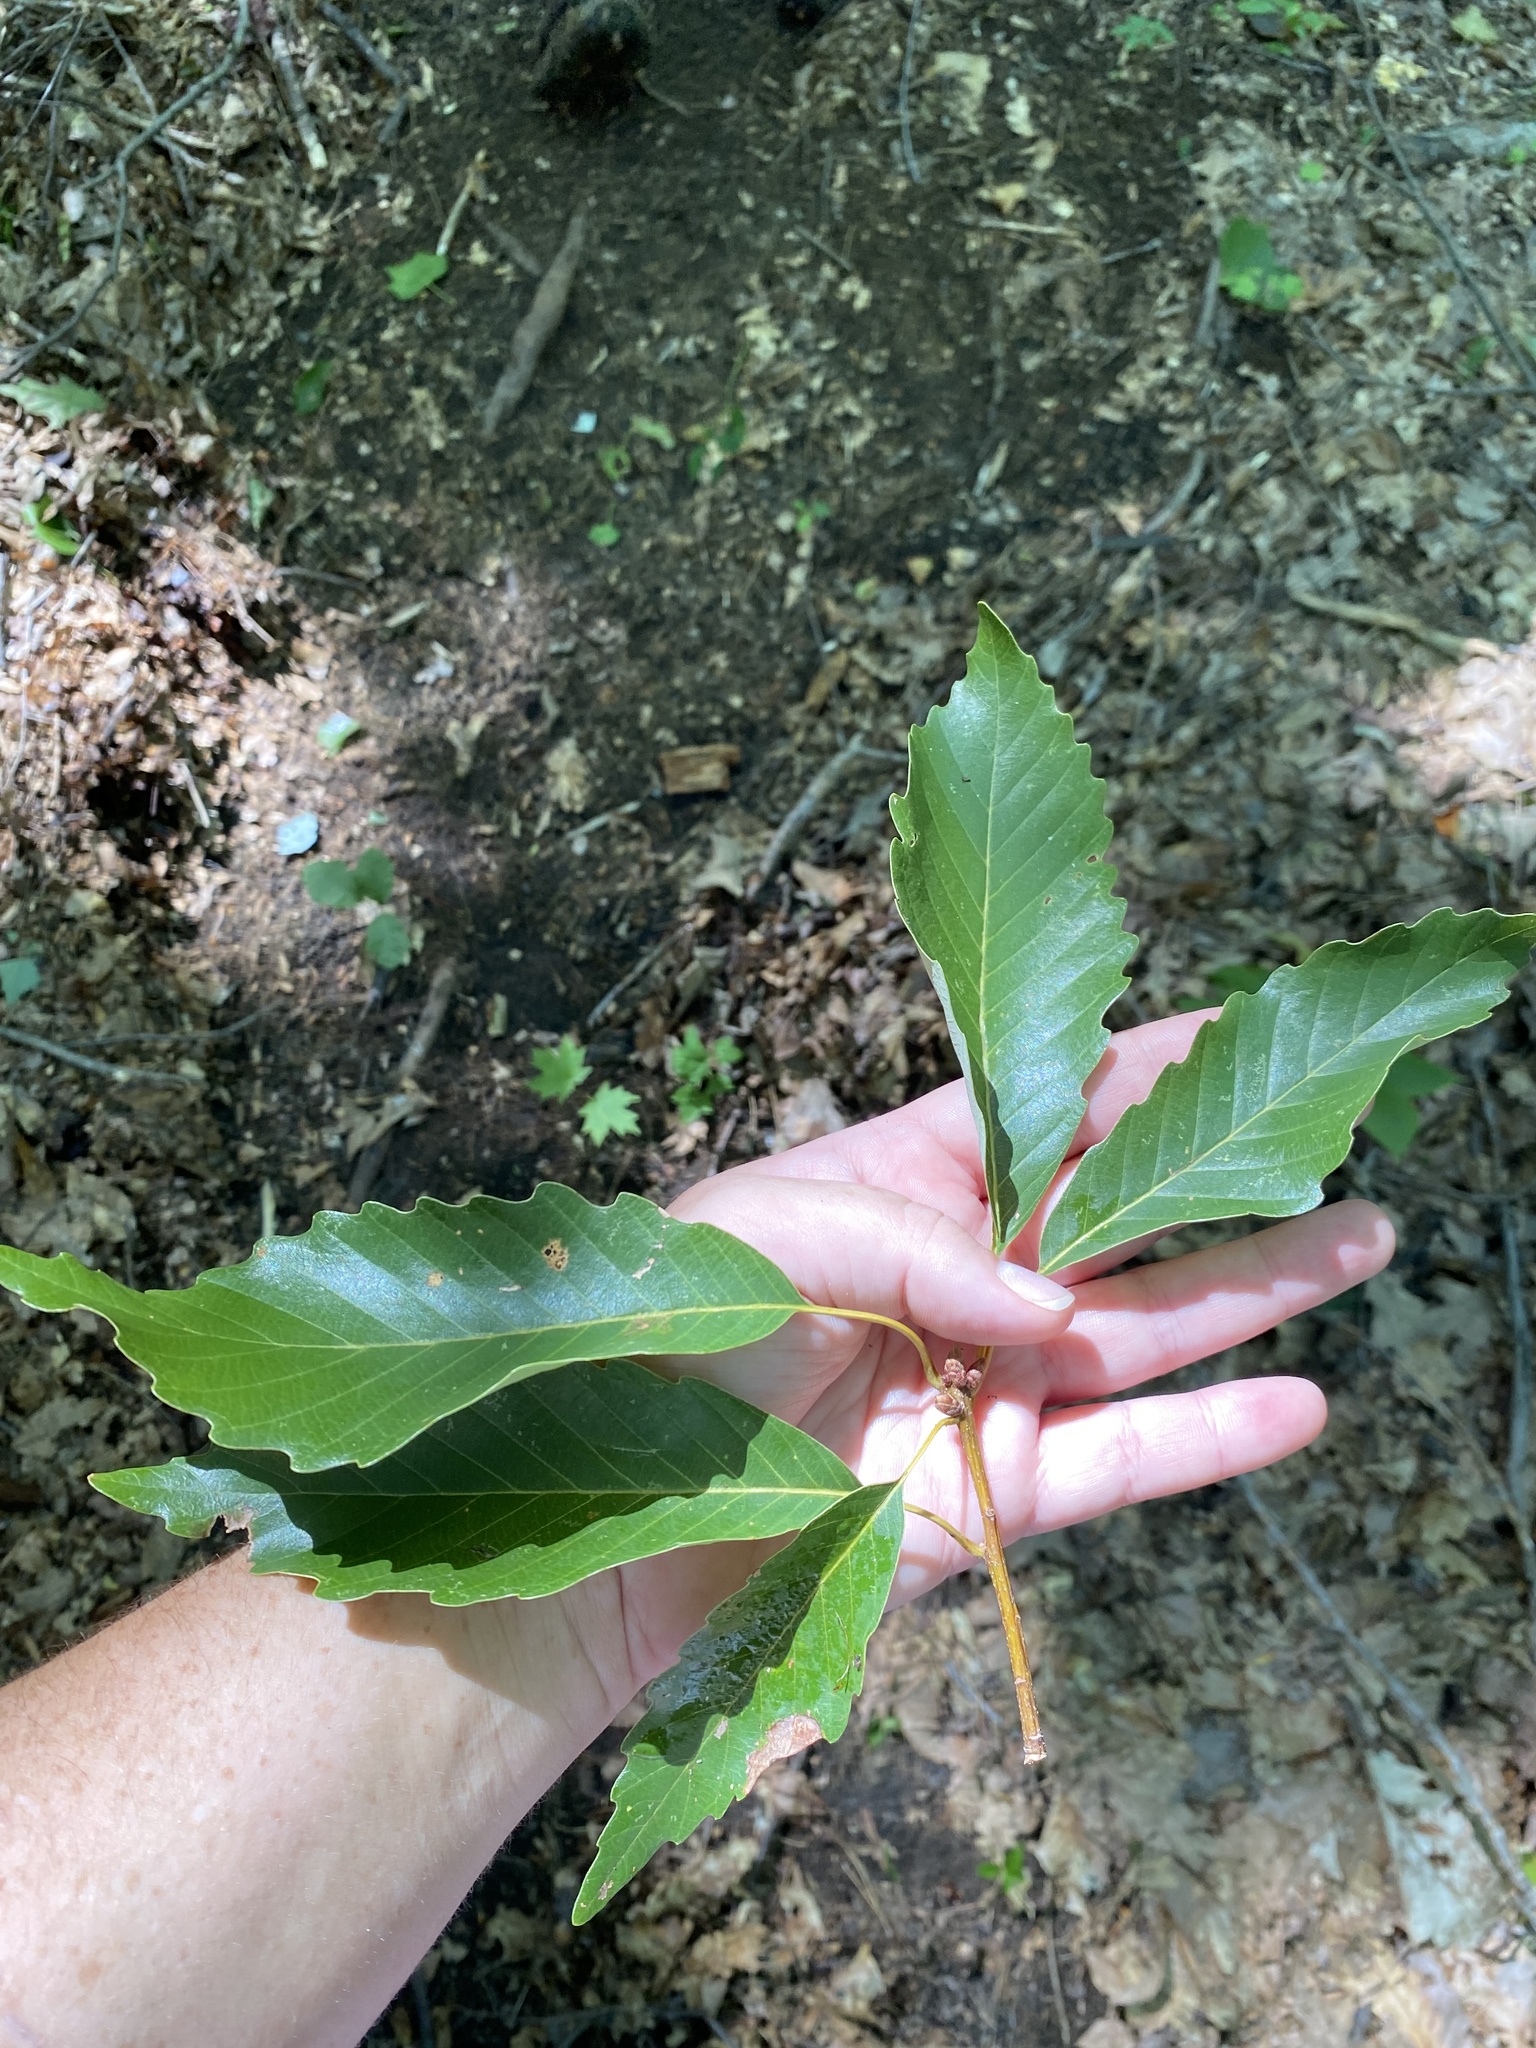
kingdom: Plantae
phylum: Tracheophyta
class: Magnoliopsida
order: Fagales
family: Fagaceae
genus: Quercus
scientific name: Quercus montana
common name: Chestnut oak
